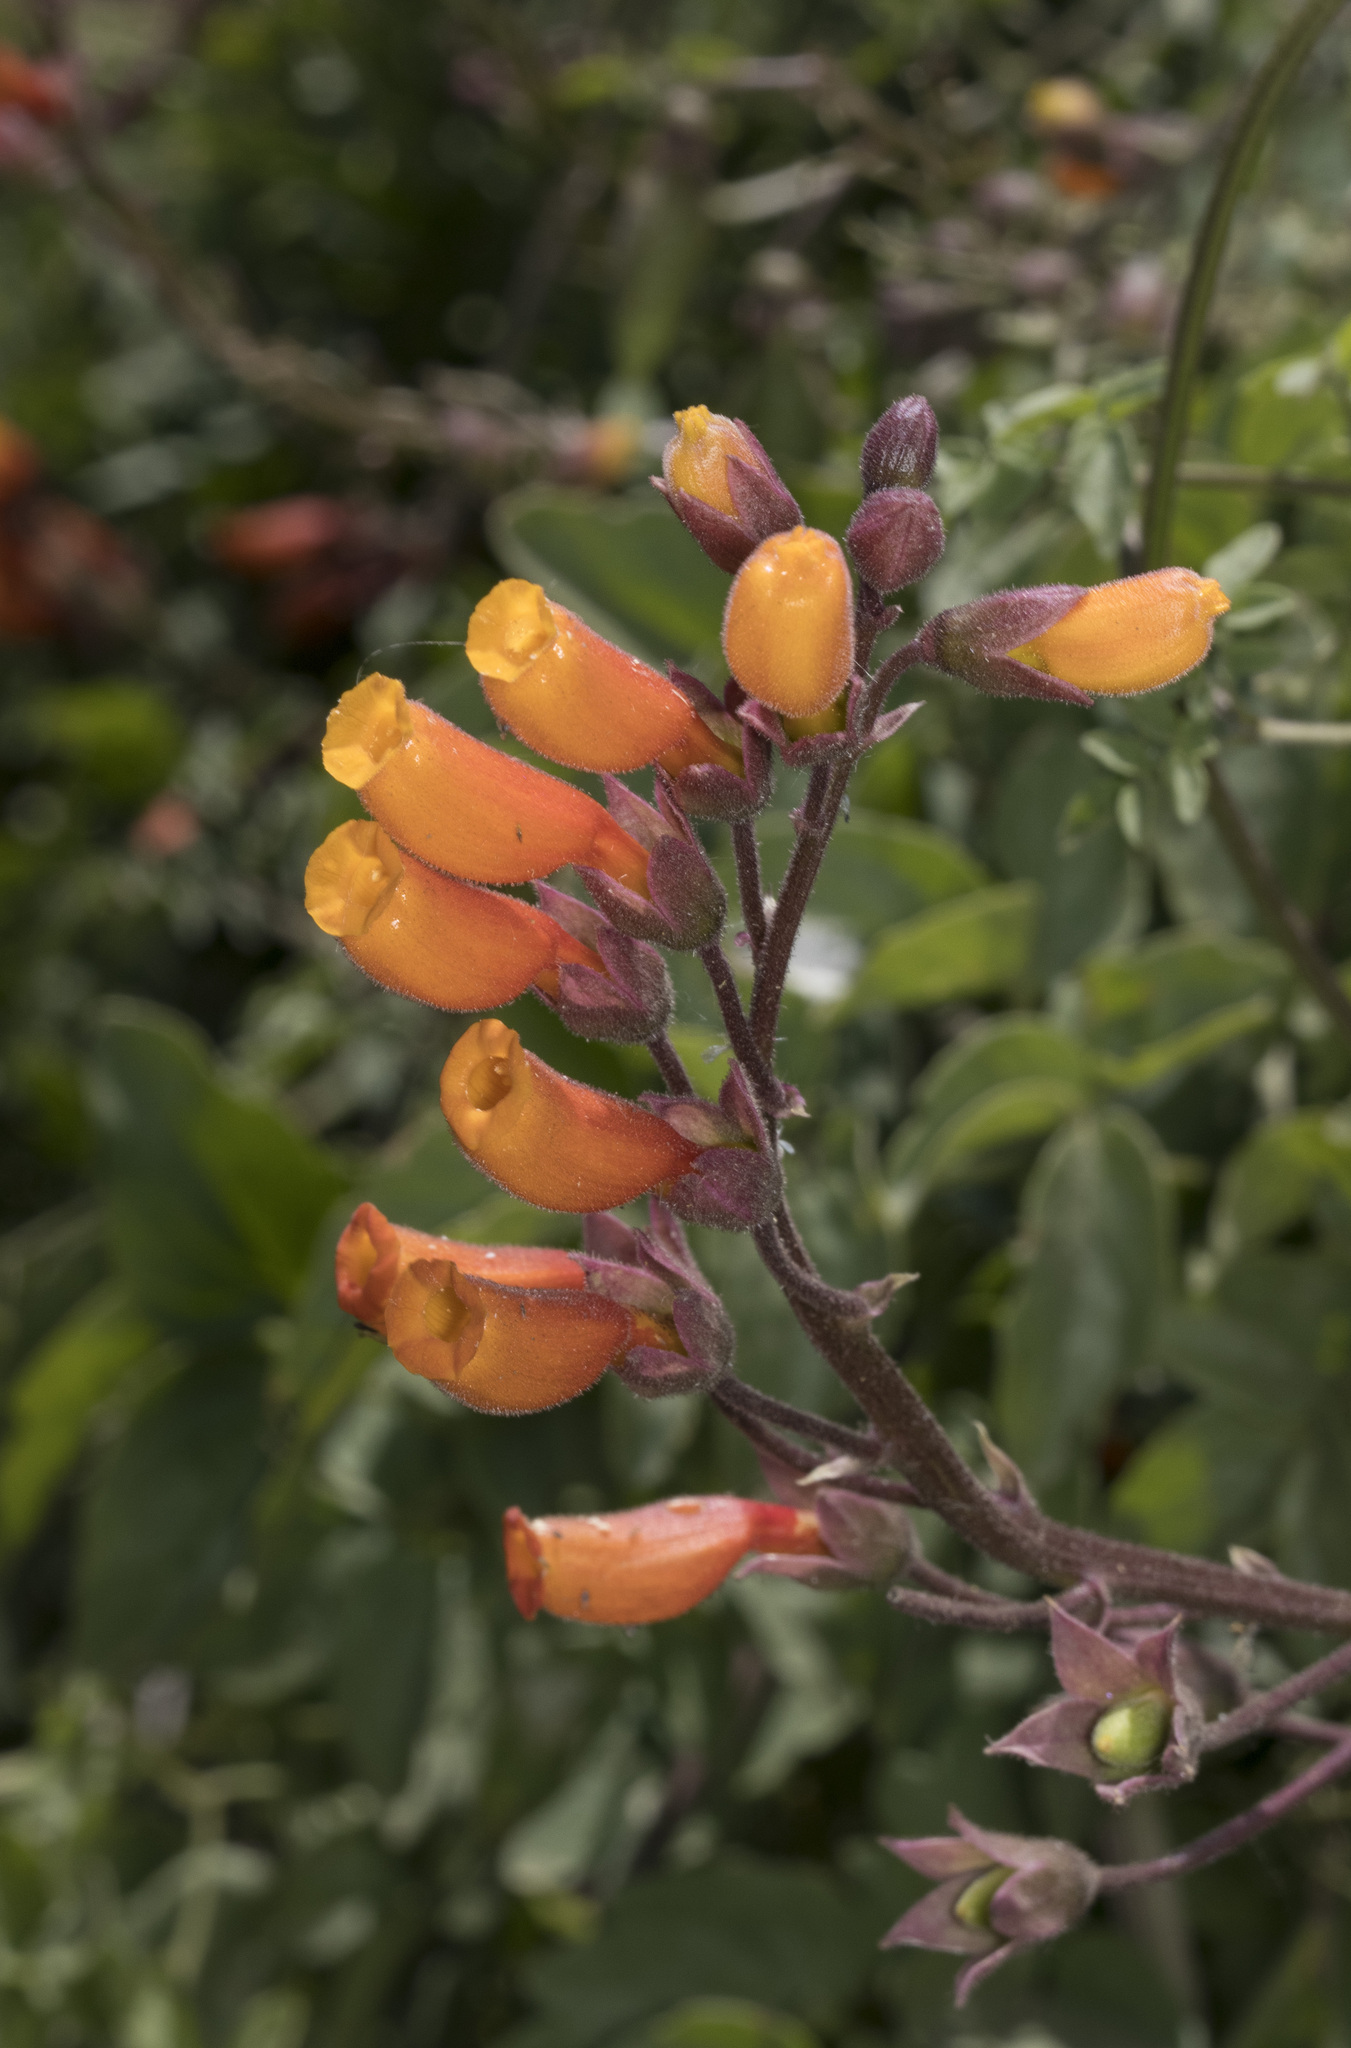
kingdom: Plantae
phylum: Tracheophyta
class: Magnoliopsida
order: Lamiales
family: Bignoniaceae
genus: Eccremocarpus
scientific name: Eccremocarpus scaber
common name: Chilean glory-flower
